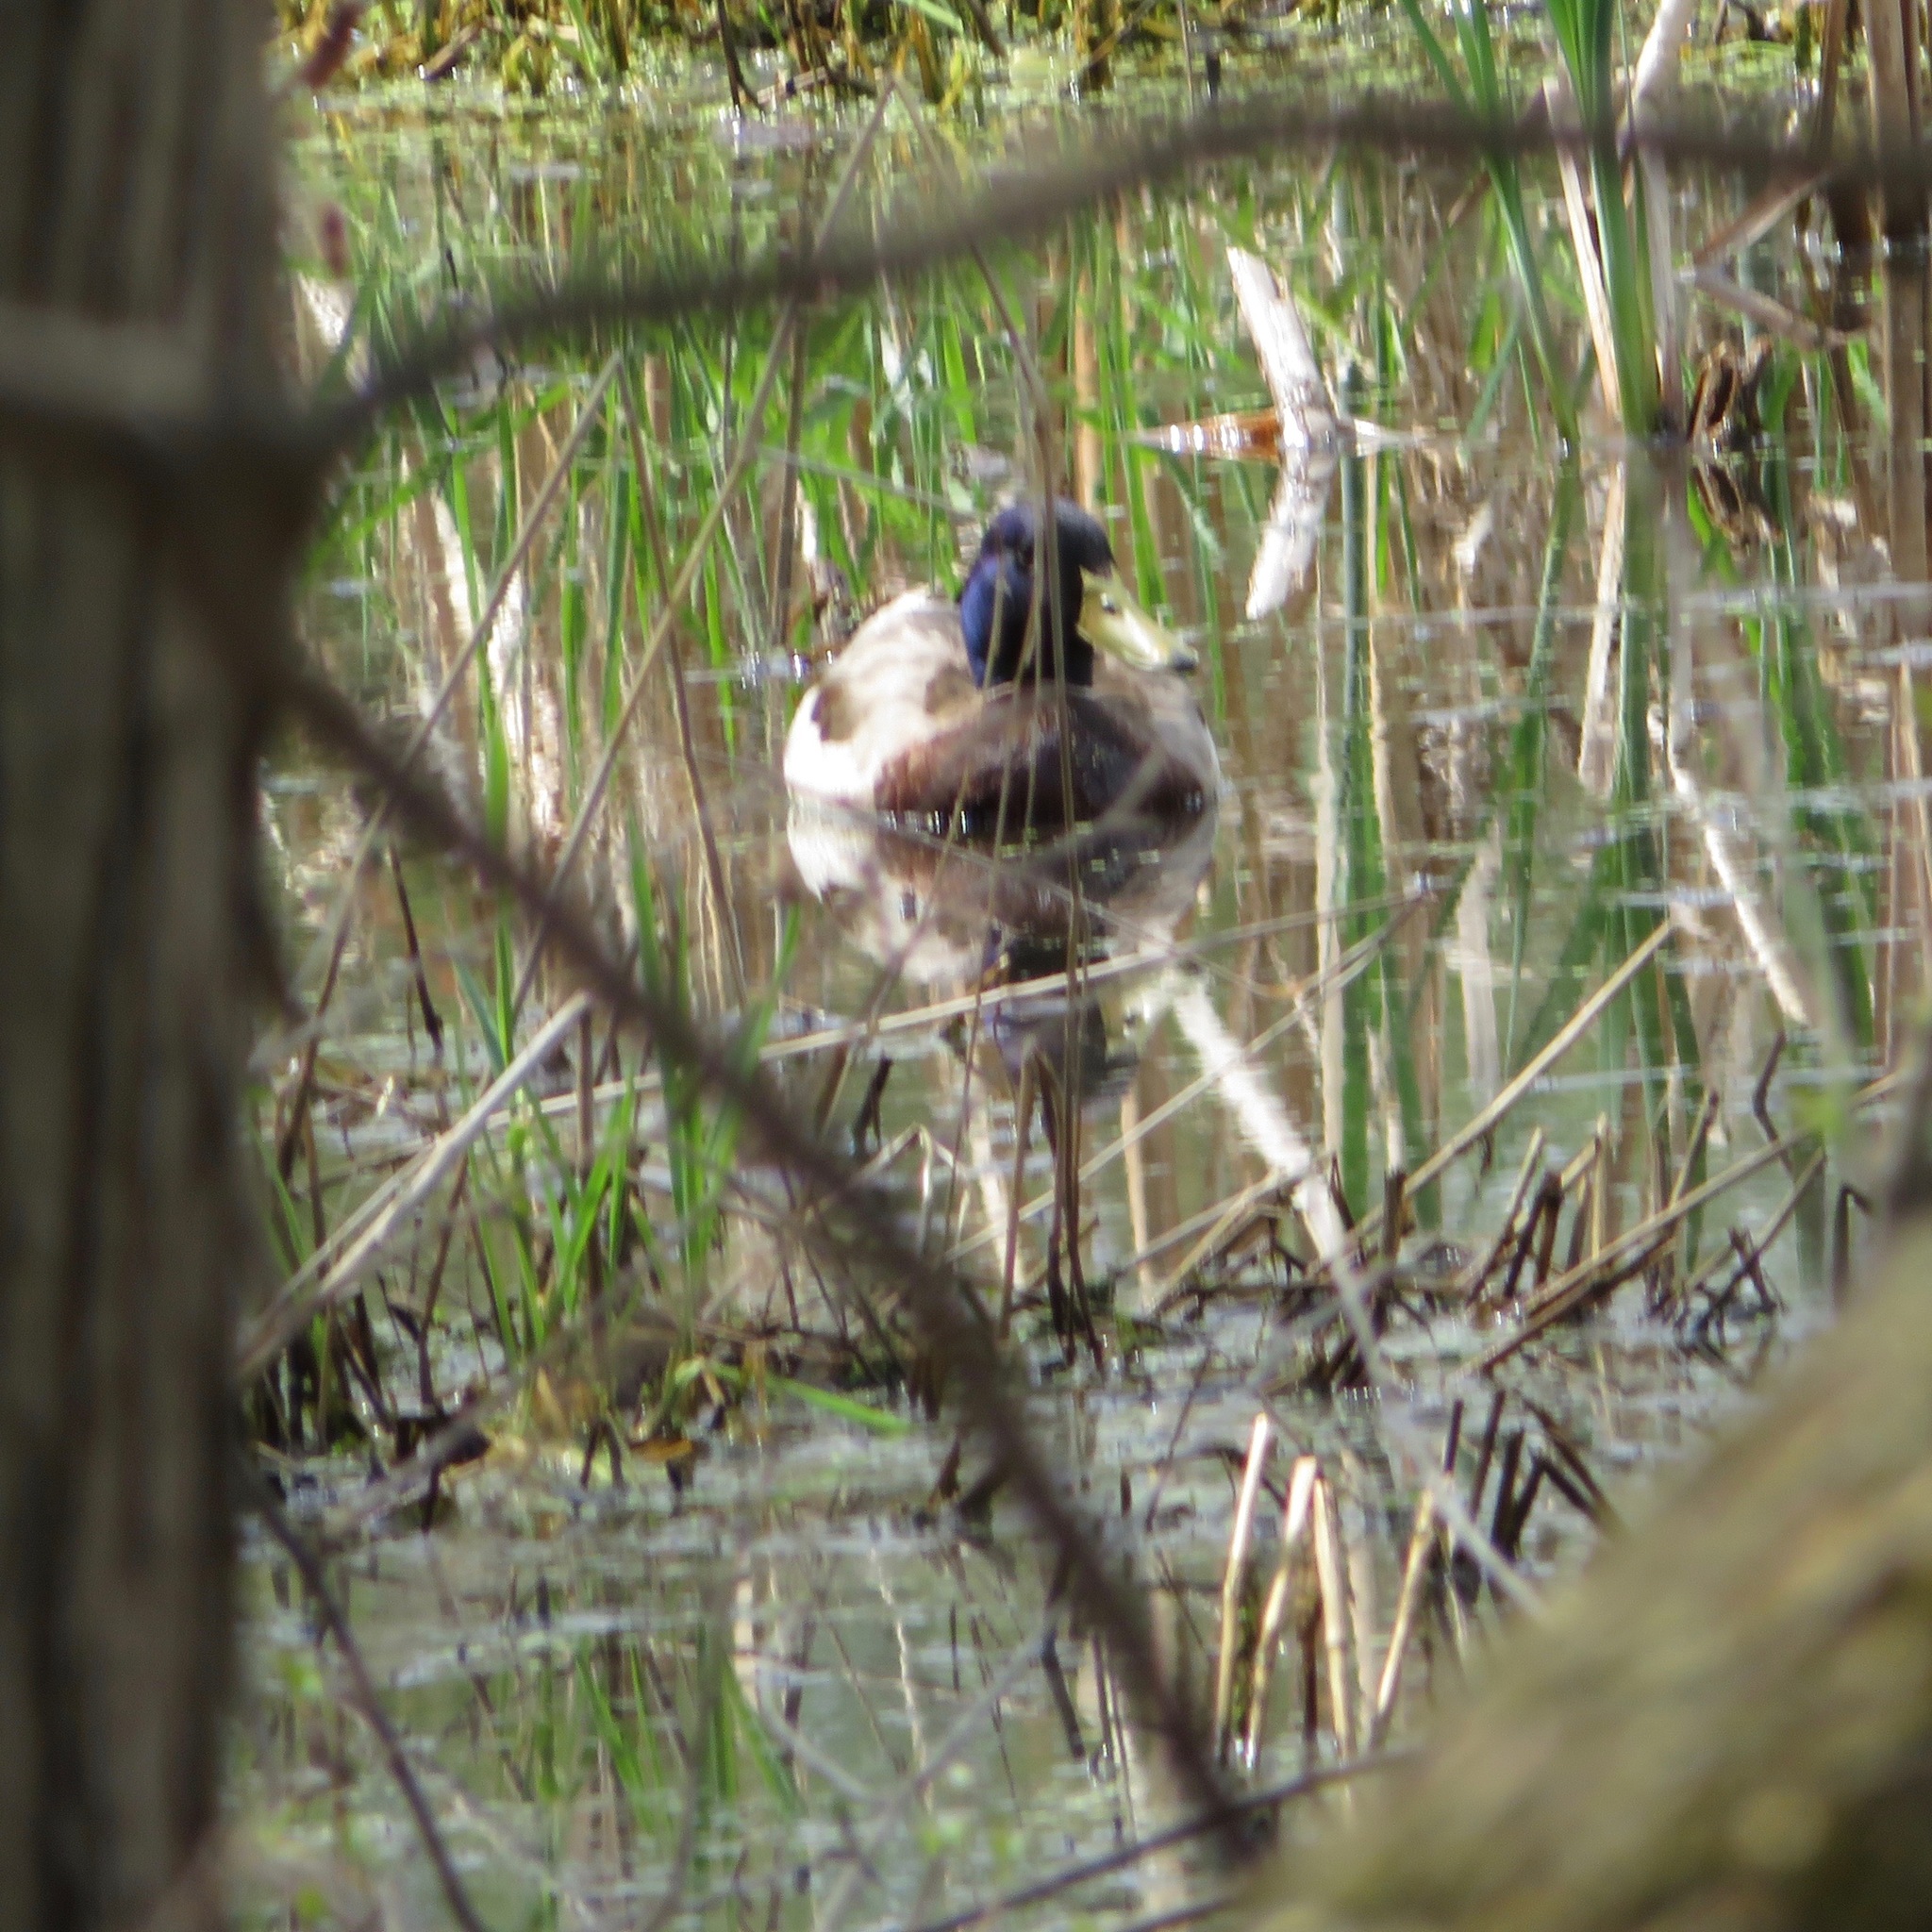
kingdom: Animalia
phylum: Chordata
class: Aves
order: Anseriformes
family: Anatidae
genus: Anas
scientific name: Anas platyrhynchos
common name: Mallard
